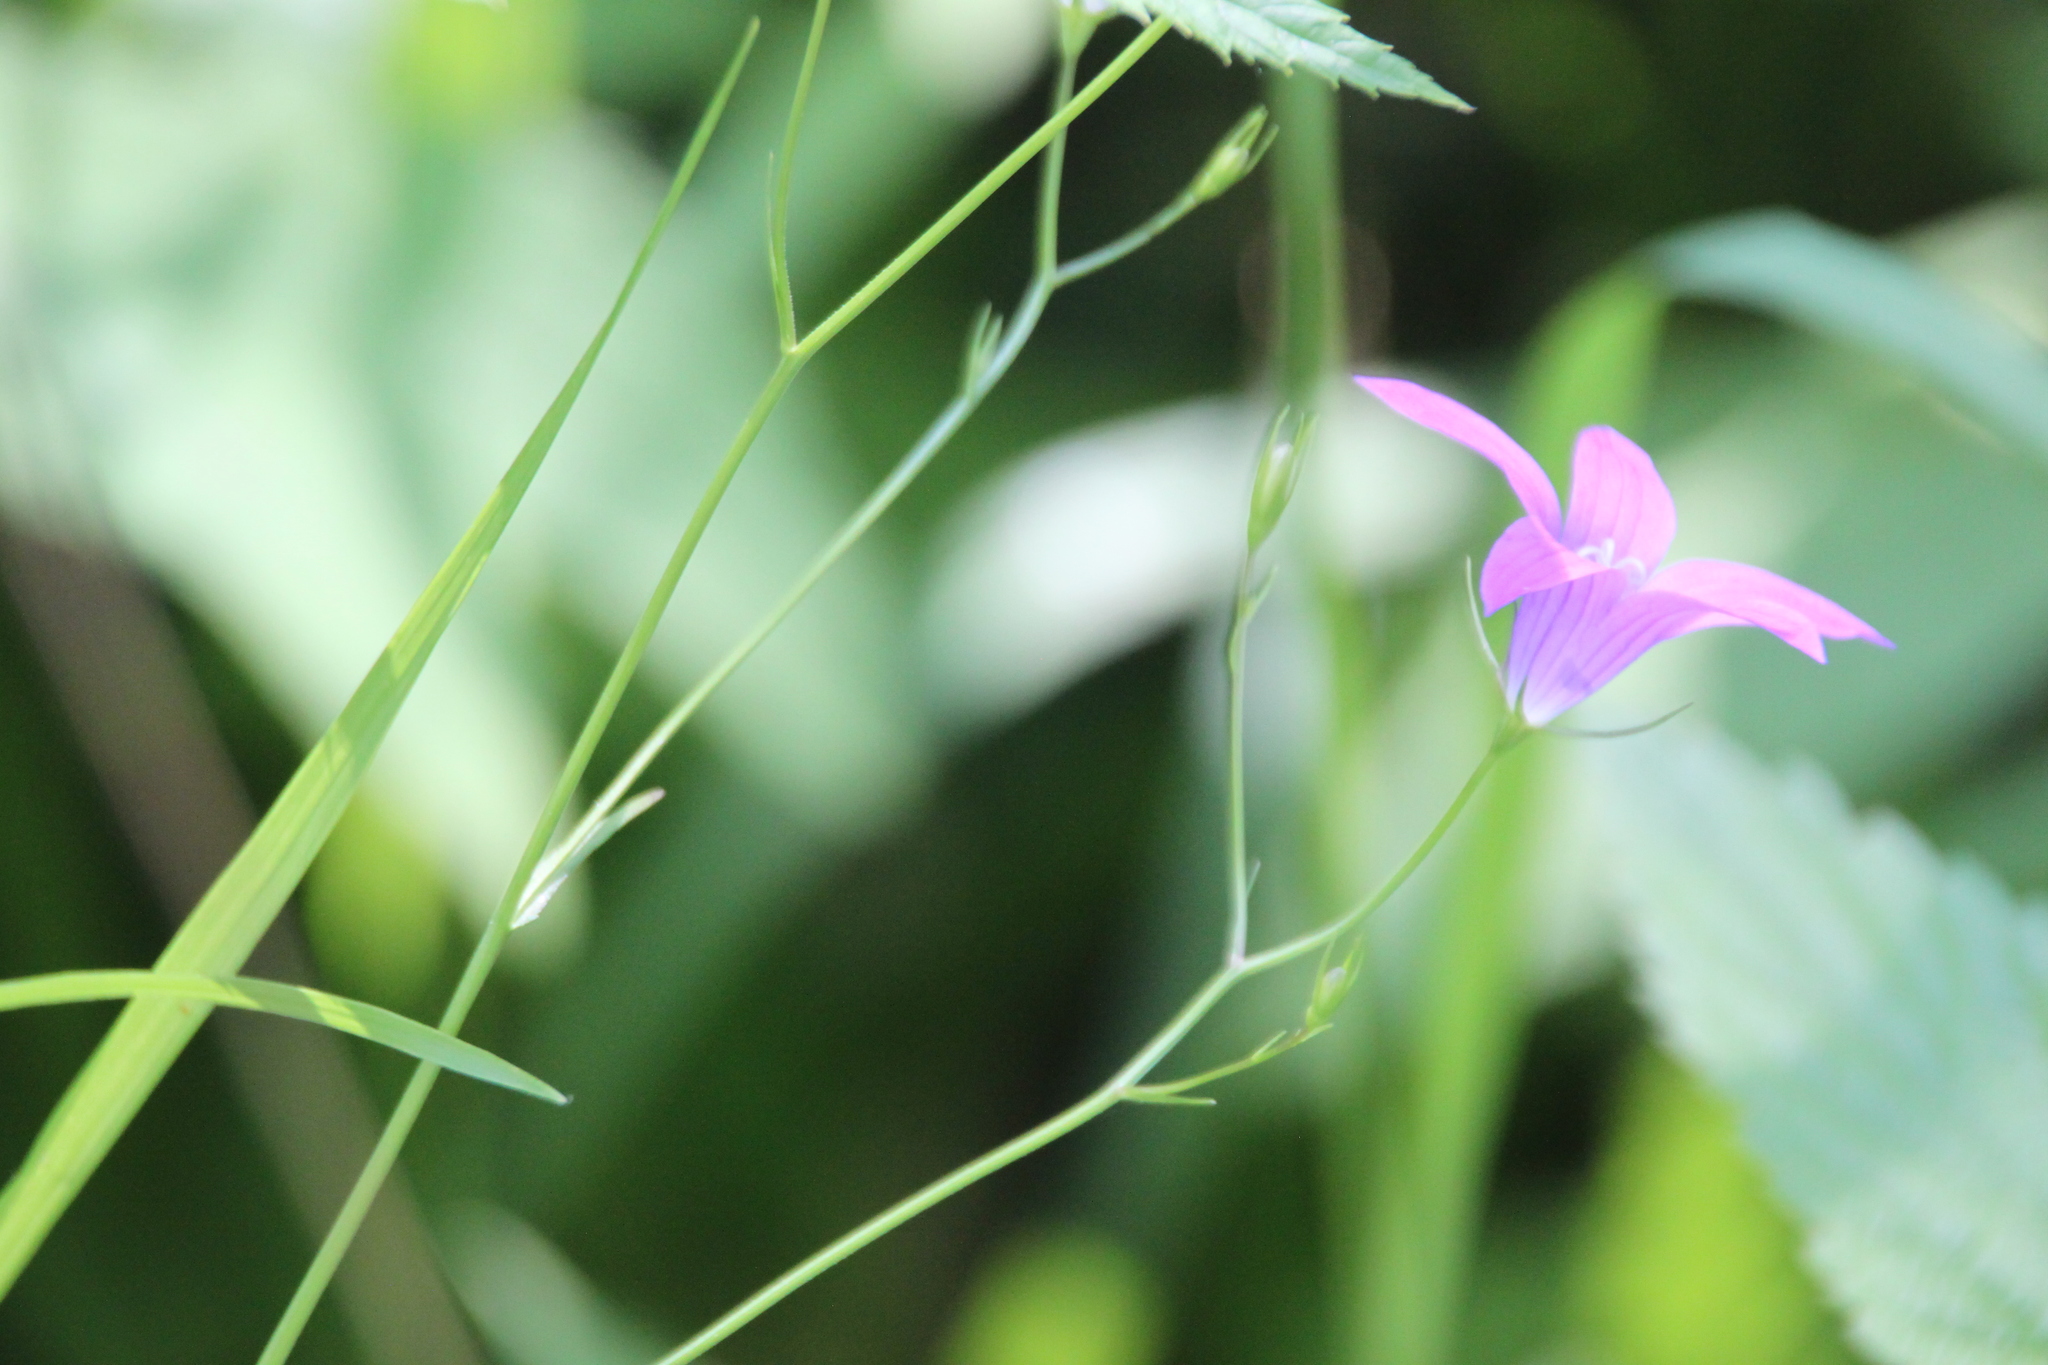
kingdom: Plantae
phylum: Tracheophyta
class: Magnoliopsida
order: Asterales
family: Campanulaceae
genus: Campanula
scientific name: Campanula patula
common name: Spreading bellflower
